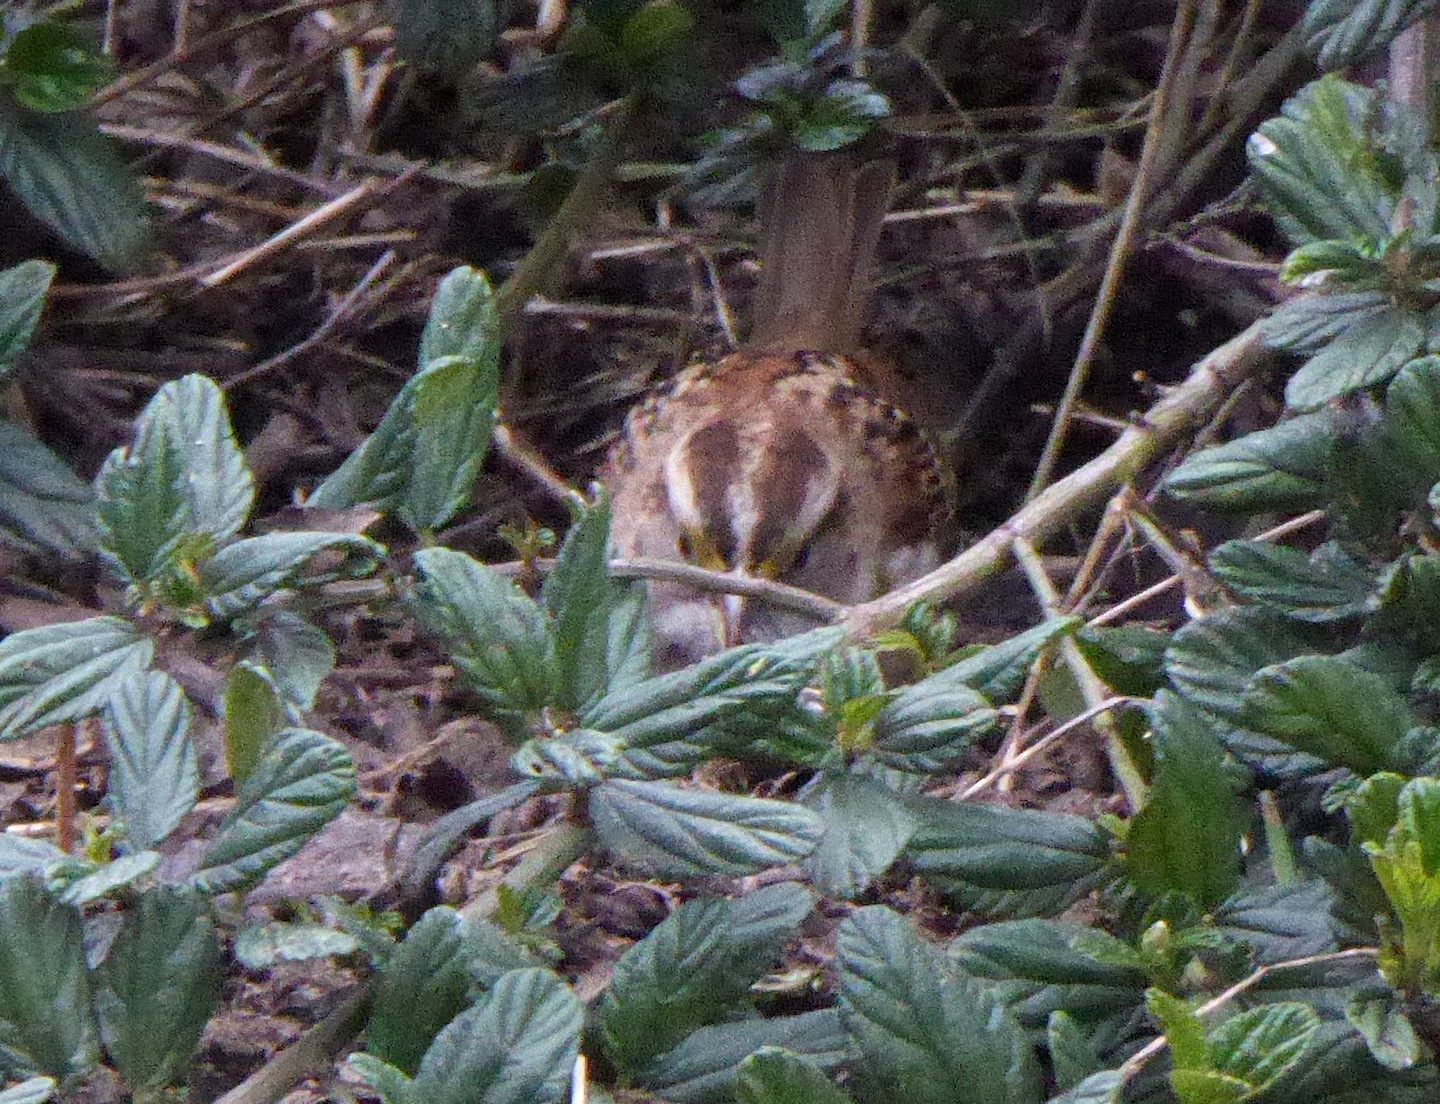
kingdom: Animalia
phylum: Chordata
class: Aves
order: Passeriformes
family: Passerellidae
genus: Zonotrichia
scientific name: Zonotrichia albicollis
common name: White-throated sparrow
